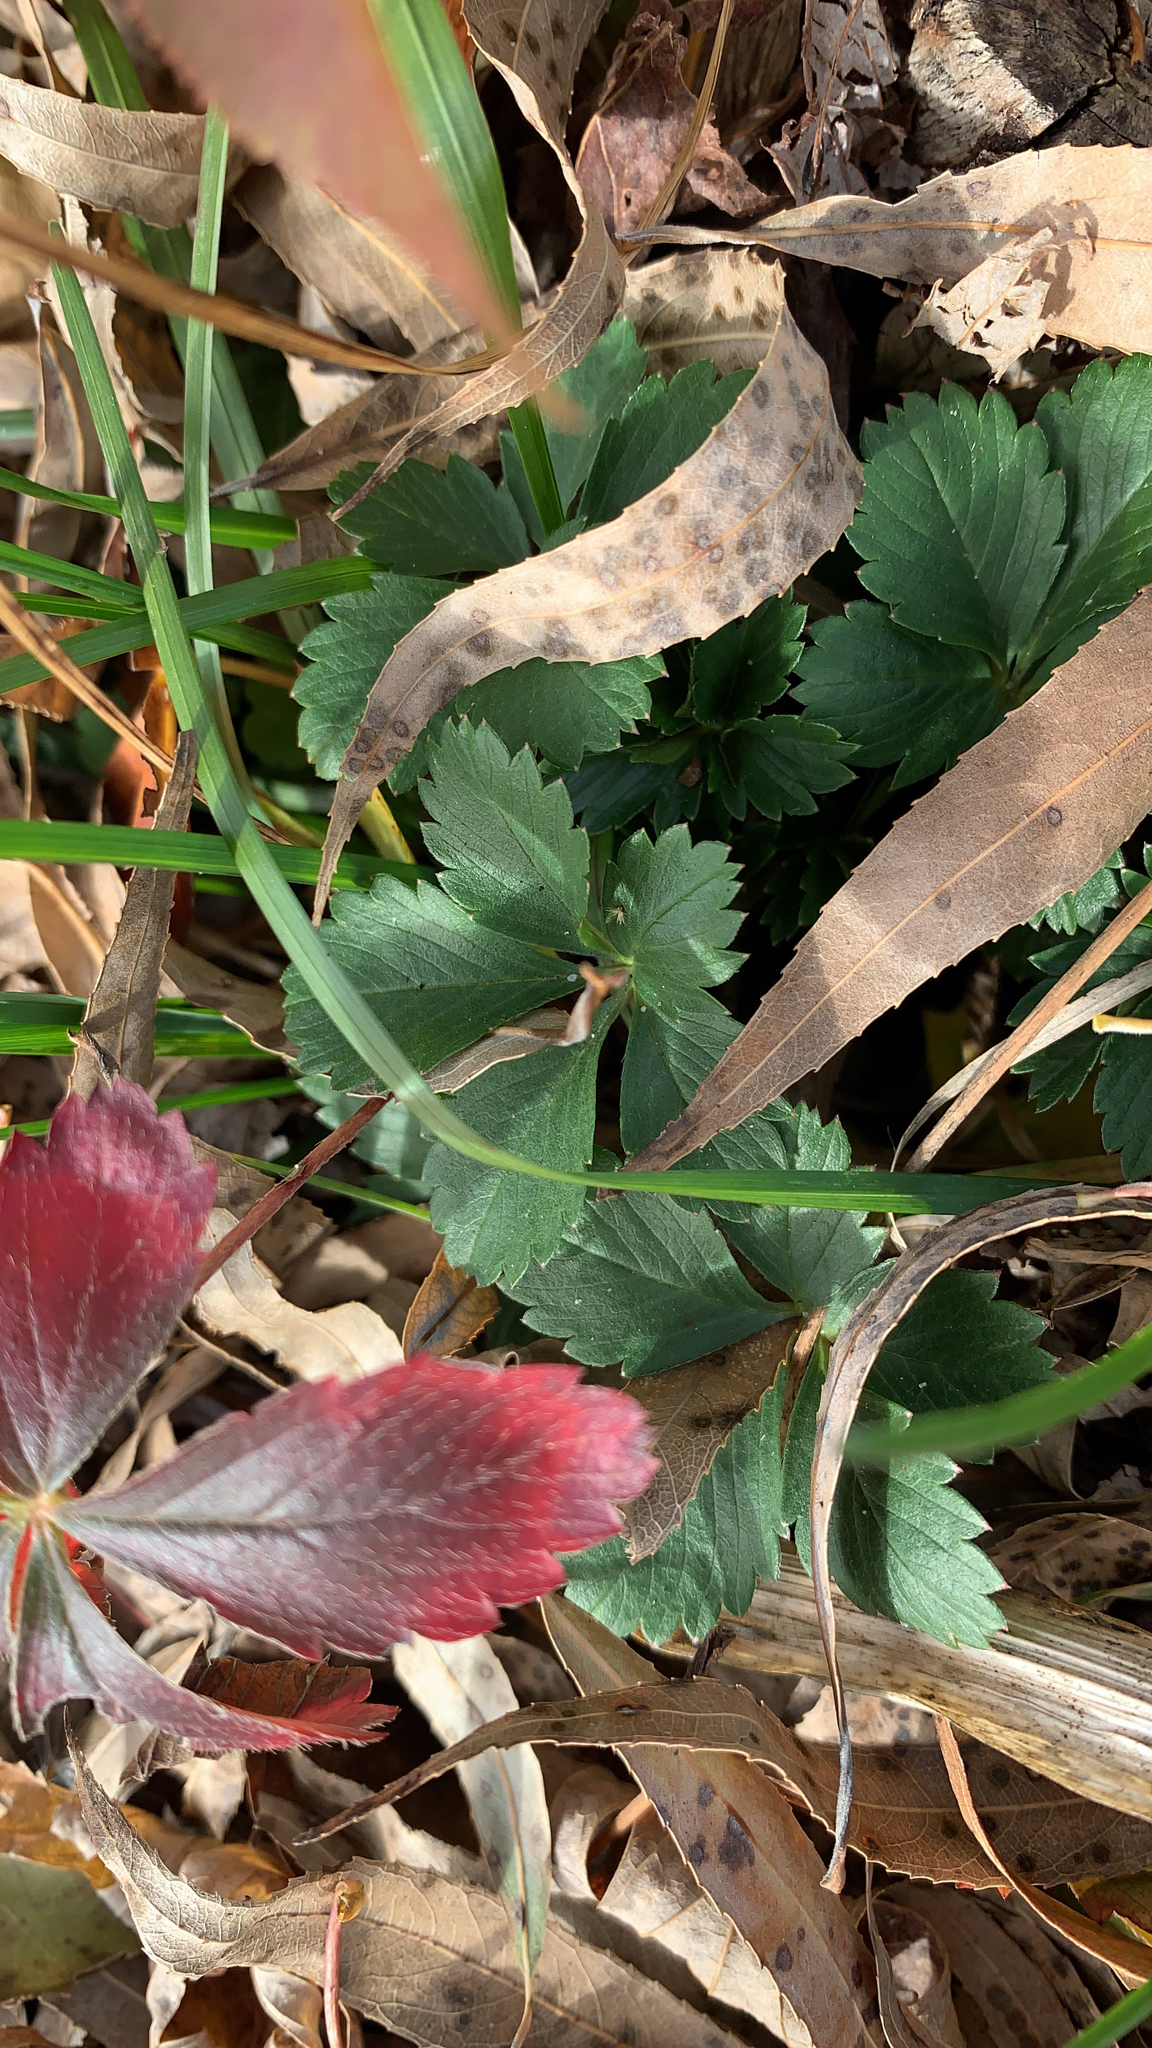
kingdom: Plantae
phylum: Tracheophyta
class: Magnoliopsida
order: Rosales
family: Rosaceae
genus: Potentilla
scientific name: Potentilla canadensis
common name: Canada cinquefoil
